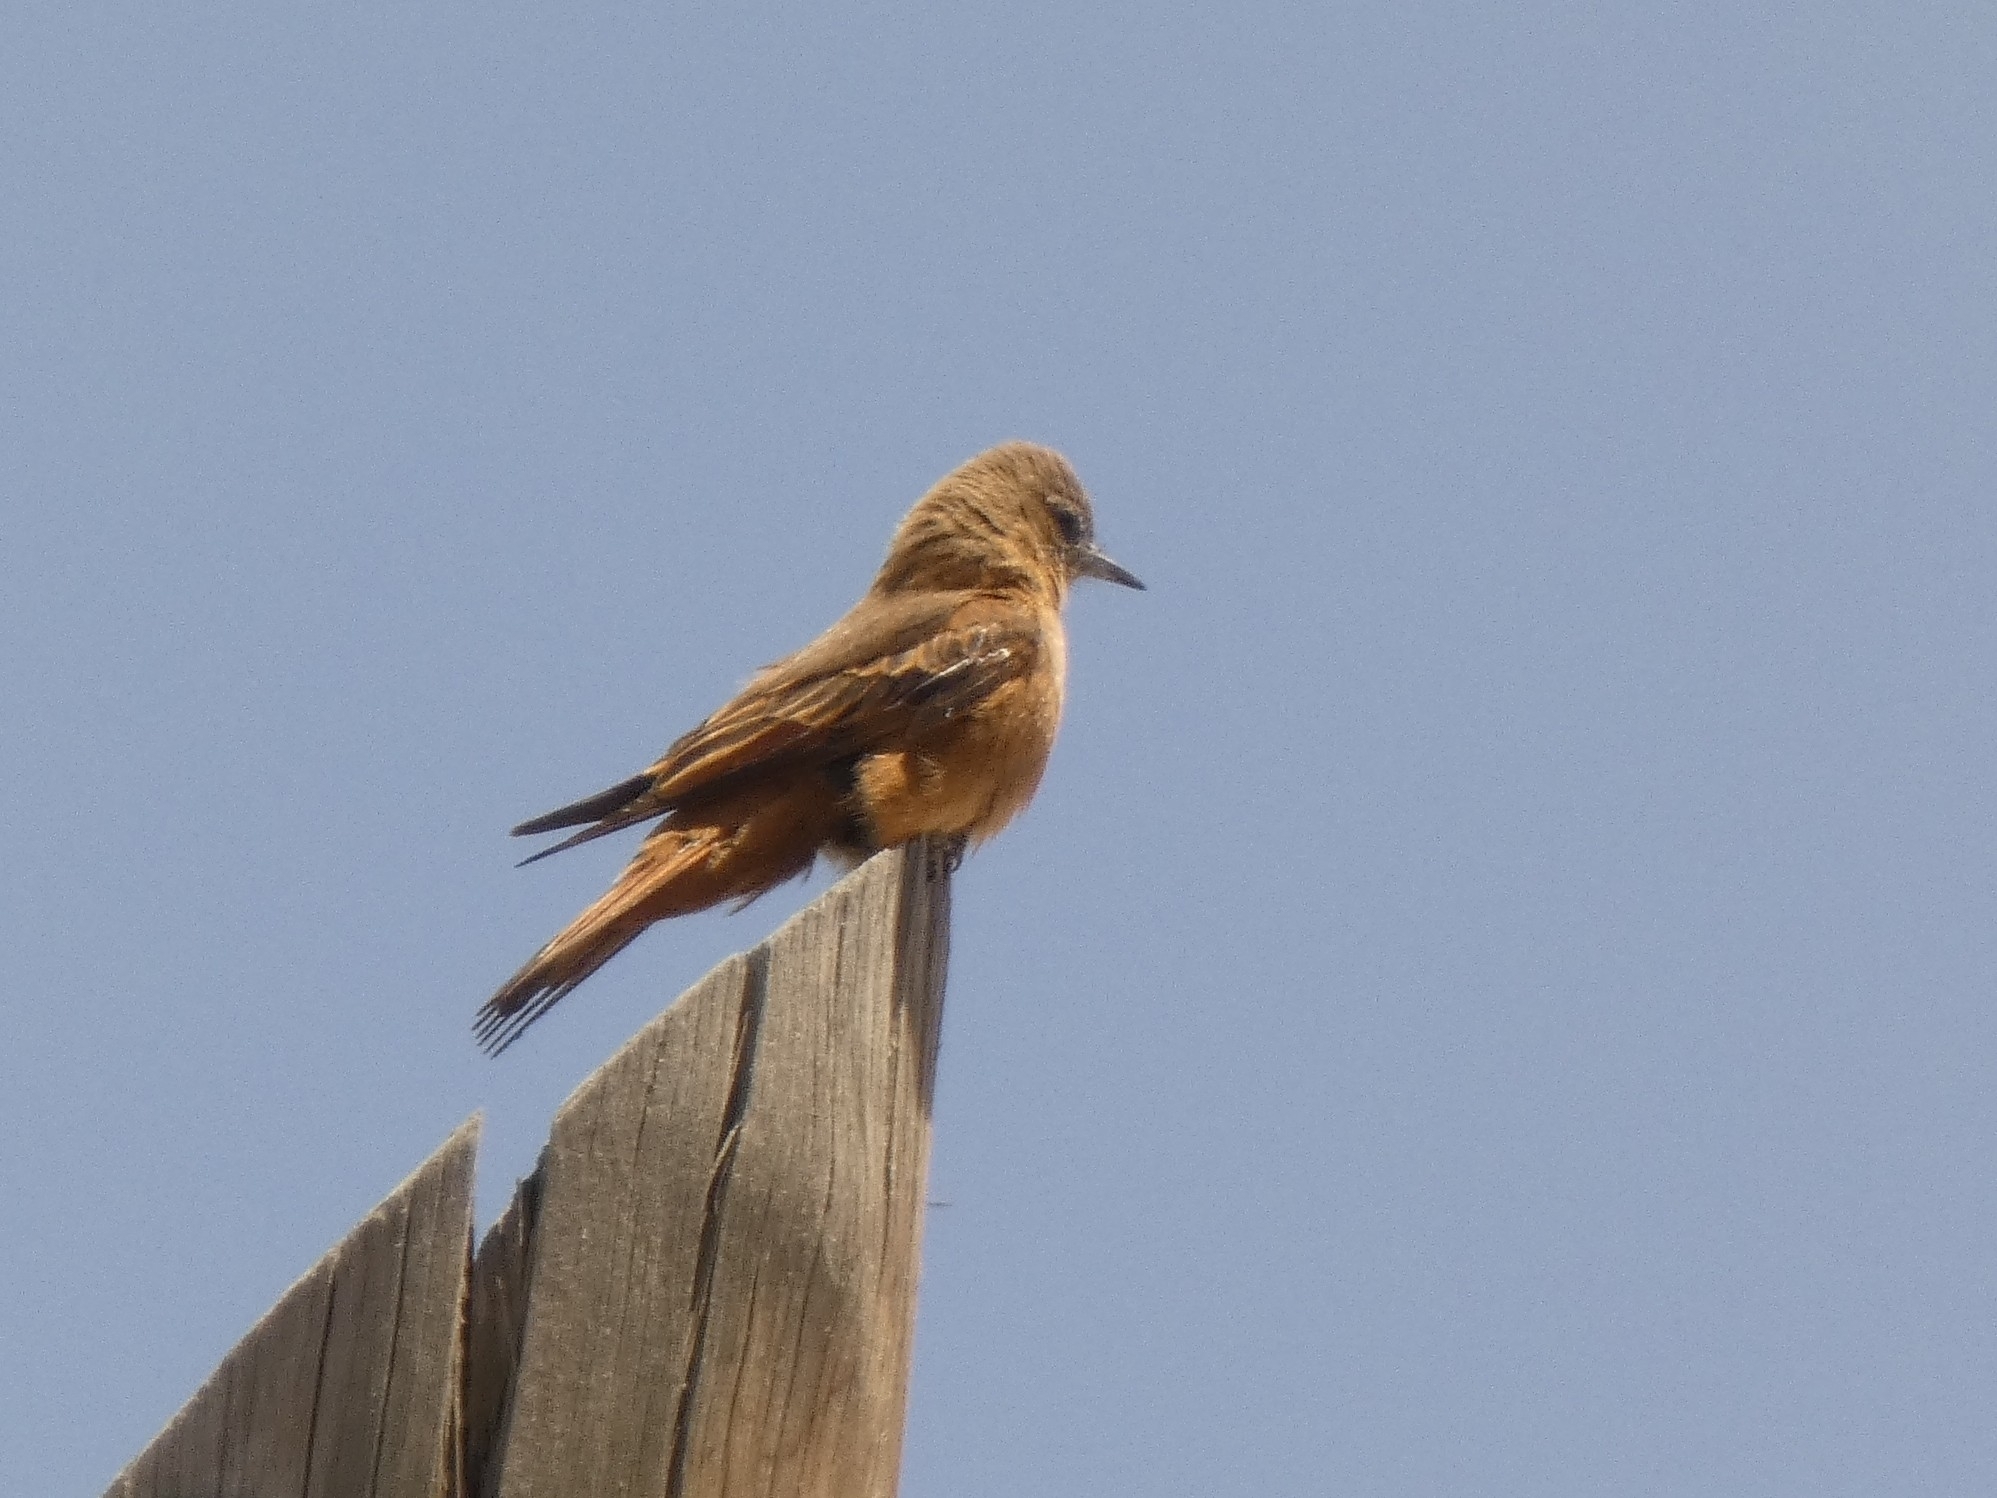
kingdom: Animalia
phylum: Chordata
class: Aves
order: Passeriformes
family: Tyrannidae
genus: Hirundinea
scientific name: Hirundinea ferruginea
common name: Cliff flycatcher
